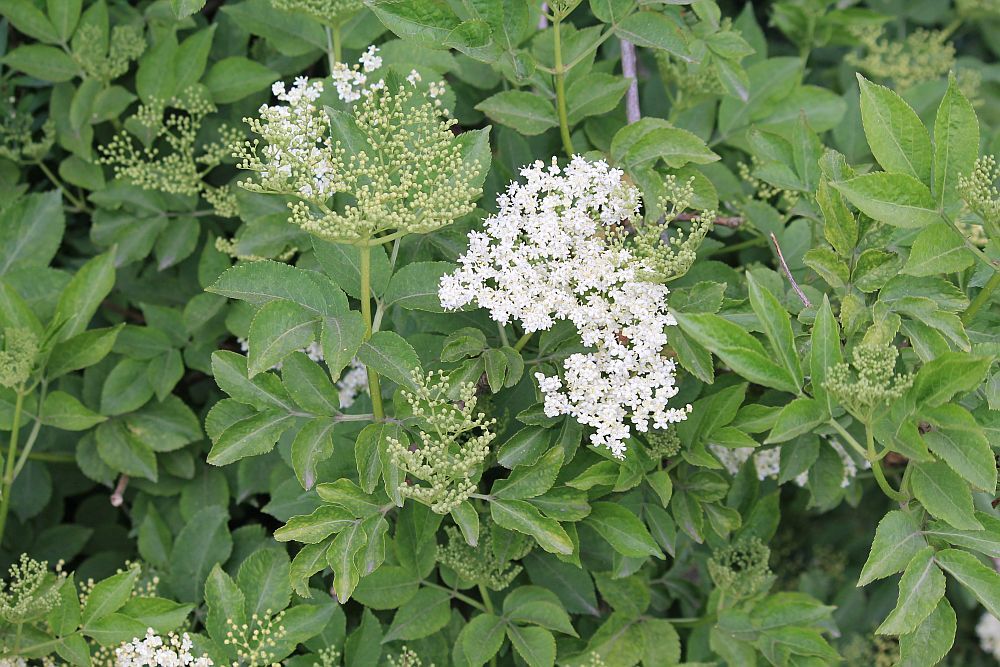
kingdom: Plantae
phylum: Tracheophyta
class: Magnoliopsida
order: Dipsacales
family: Viburnaceae
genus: Sambucus
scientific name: Sambucus nigra
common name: Elder
